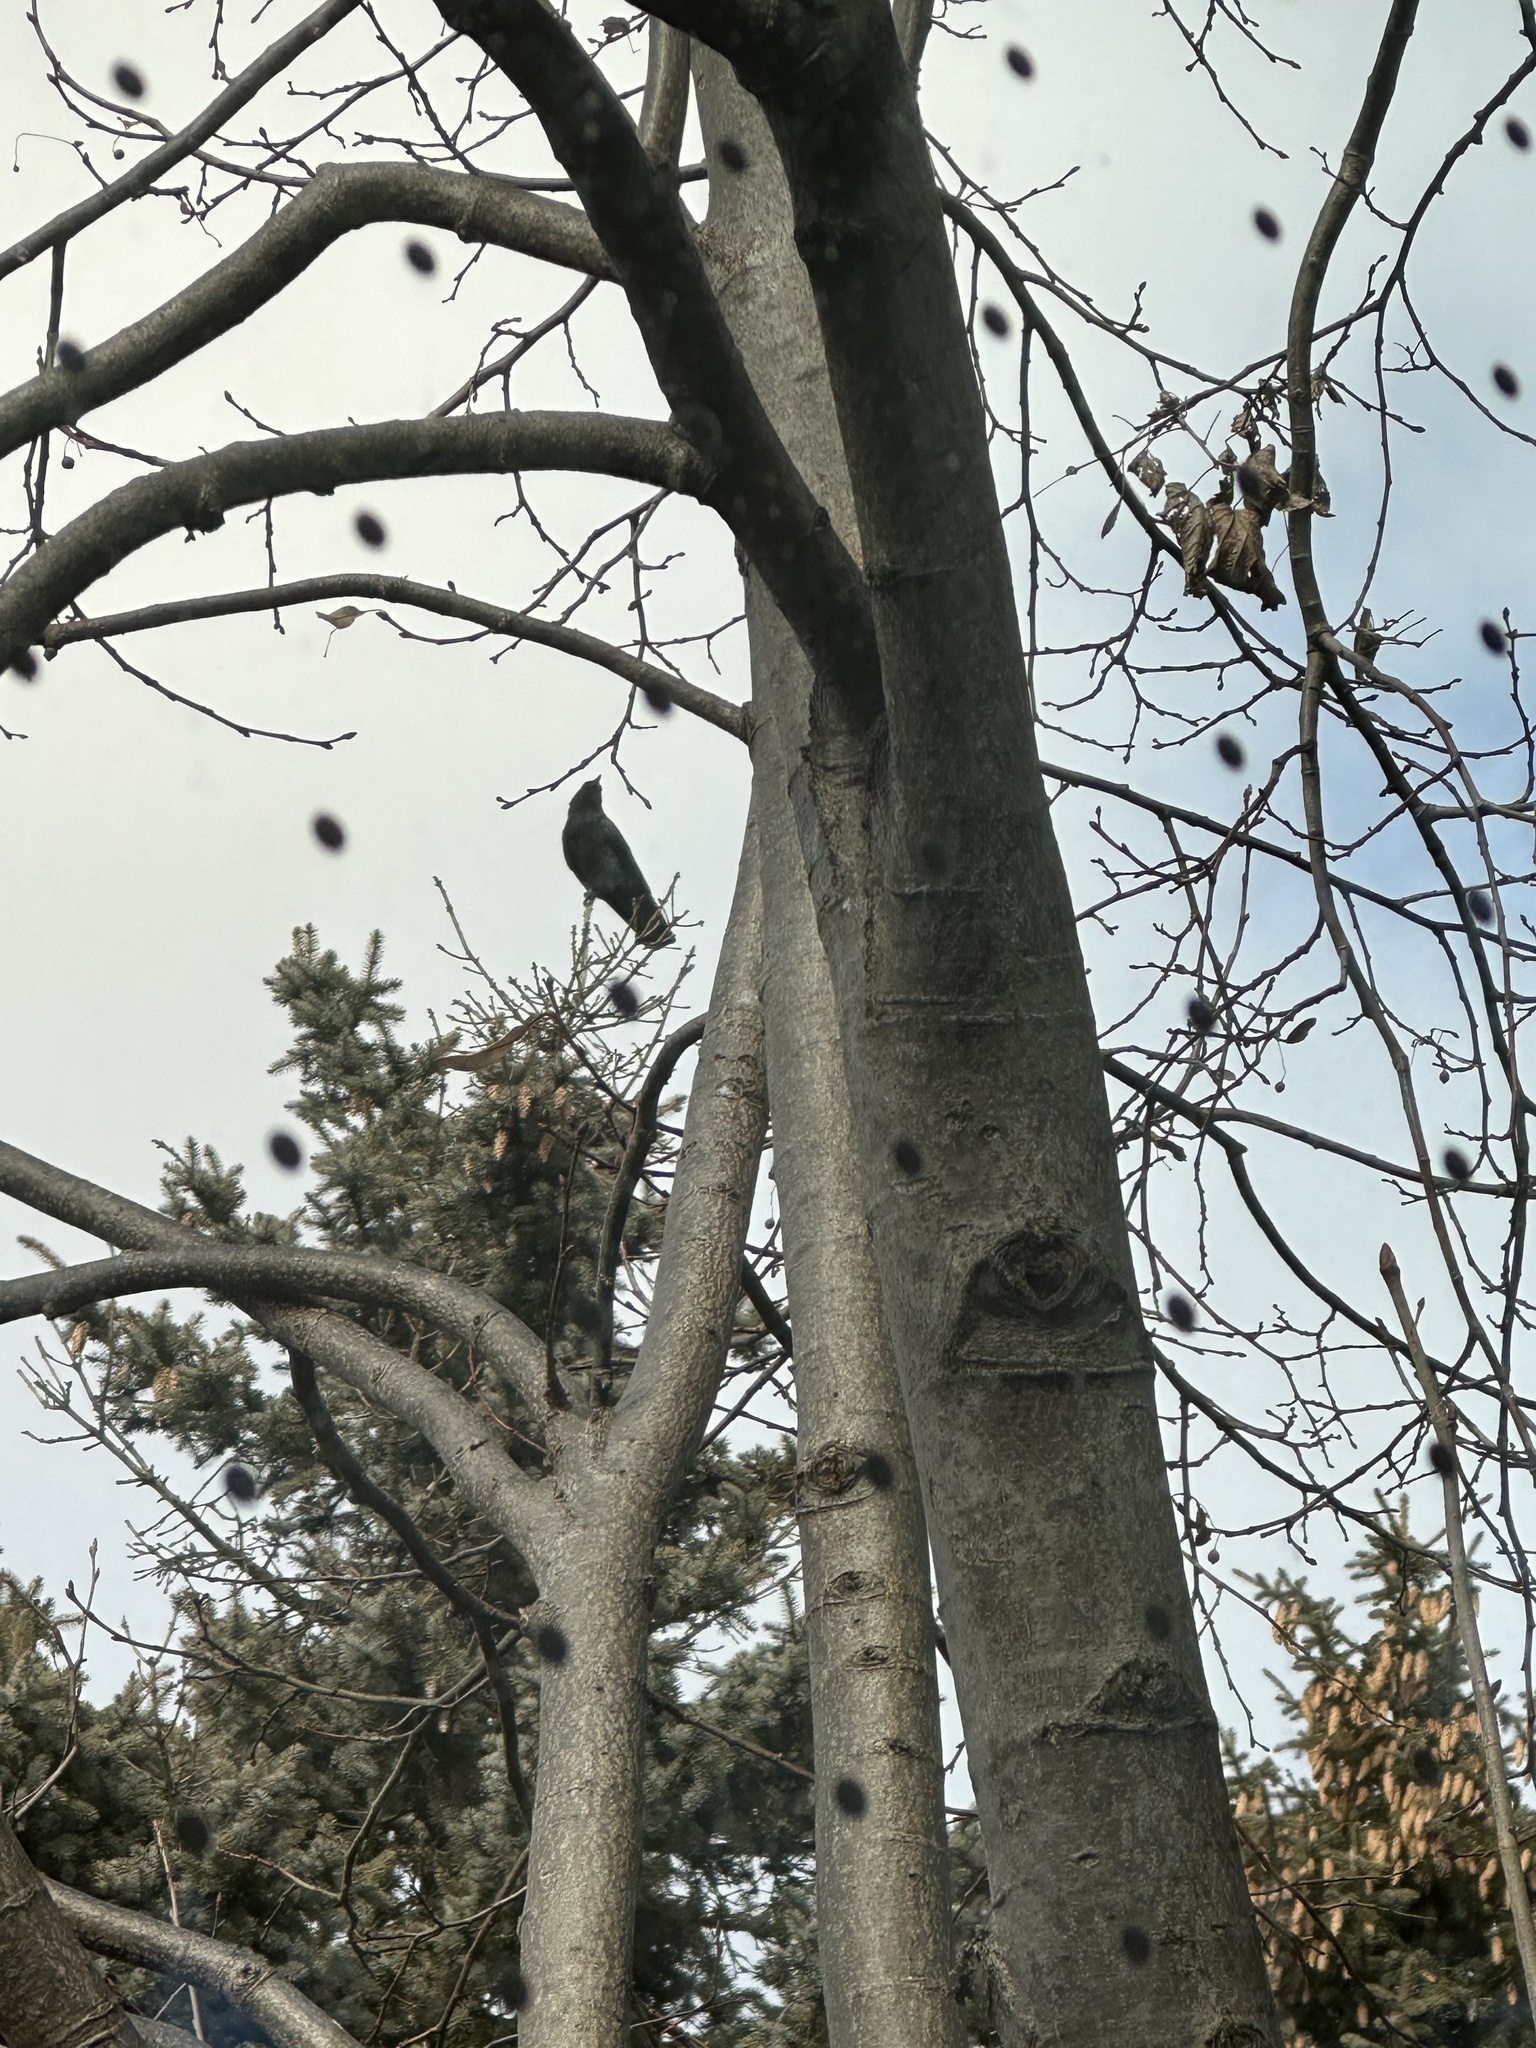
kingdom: Animalia
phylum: Chordata
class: Aves
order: Passeriformes
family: Corvidae
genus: Corvus
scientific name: Corvus brachyrhynchos
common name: American crow
